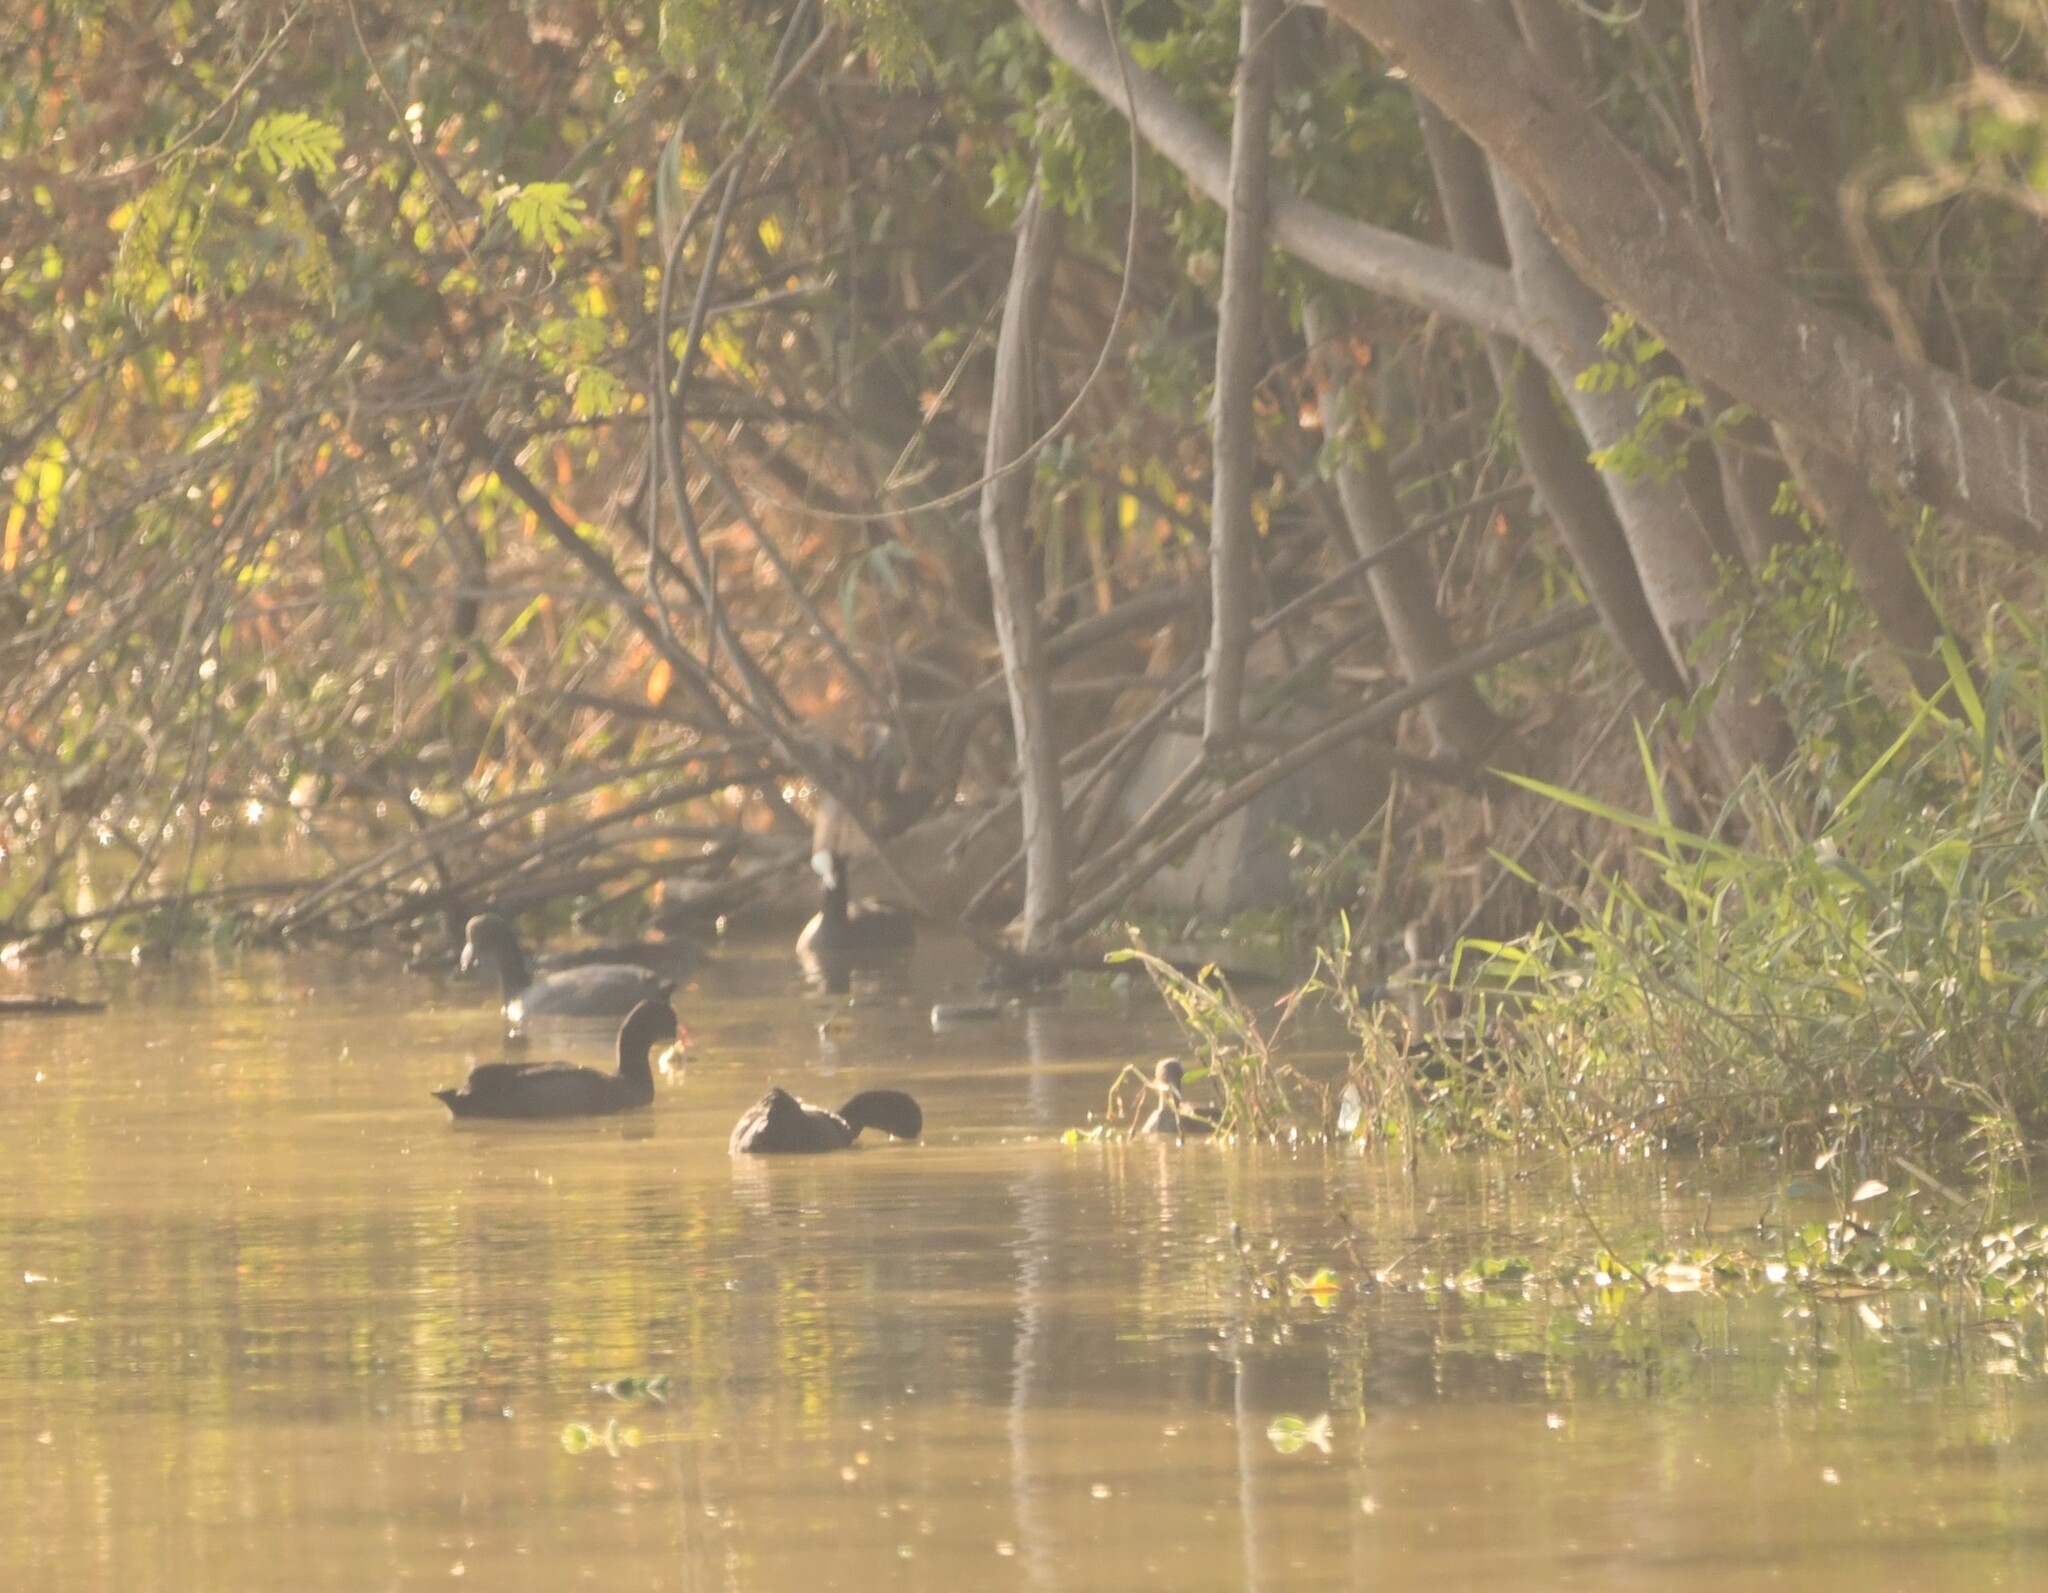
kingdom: Animalia
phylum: Chordata
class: Aves
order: Gruiformes
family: Rallidae
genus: Fulica
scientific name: Fulica atra
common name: Eurasian coot
